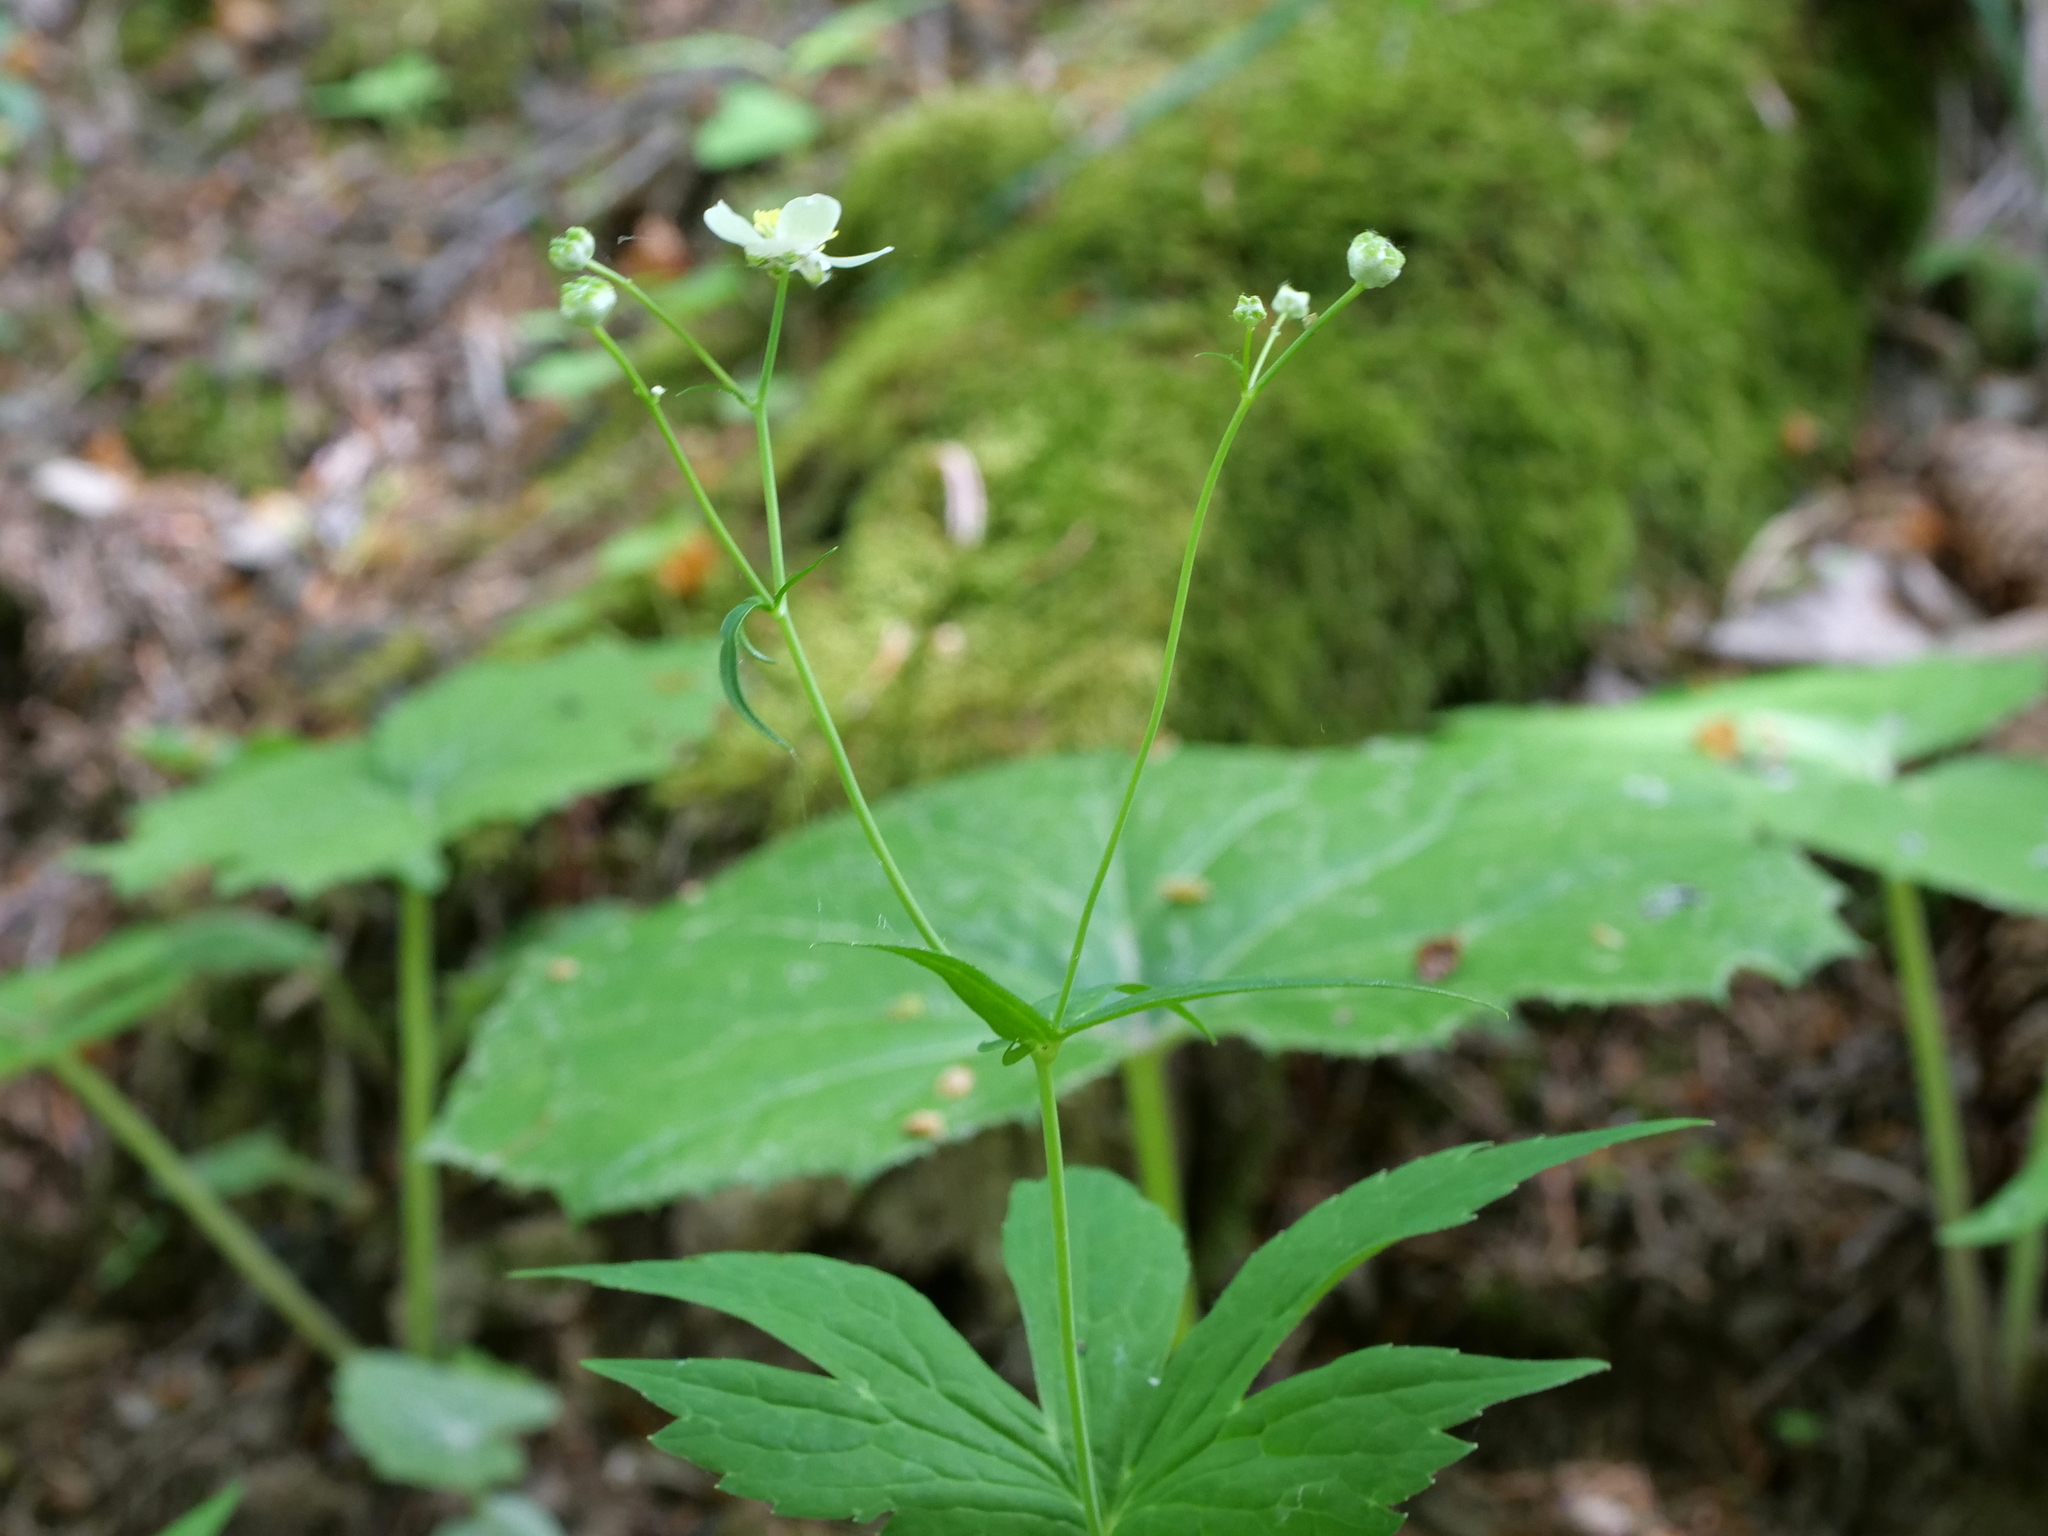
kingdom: Plantae
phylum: Tracheophyta
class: Magnoliopsida
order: Ranunculales
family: Ranunculaceae
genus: Ranunculus
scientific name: Ranunculus platanifolius
